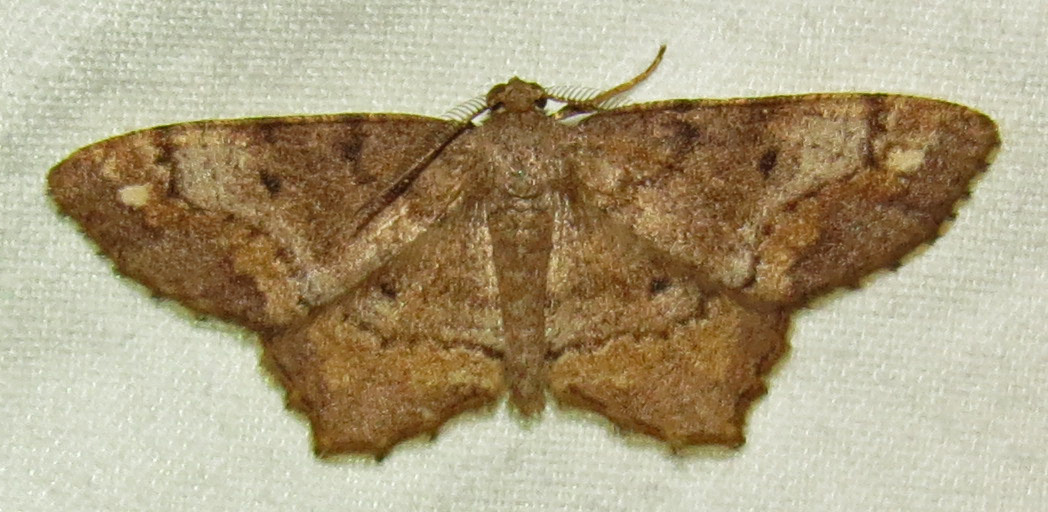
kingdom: Animalia
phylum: Arthropoda
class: Insecta
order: Lepidoptera
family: Geometridae
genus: Hypagyrtis
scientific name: Hypagyrtis unipunctata
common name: One-spotted variant
